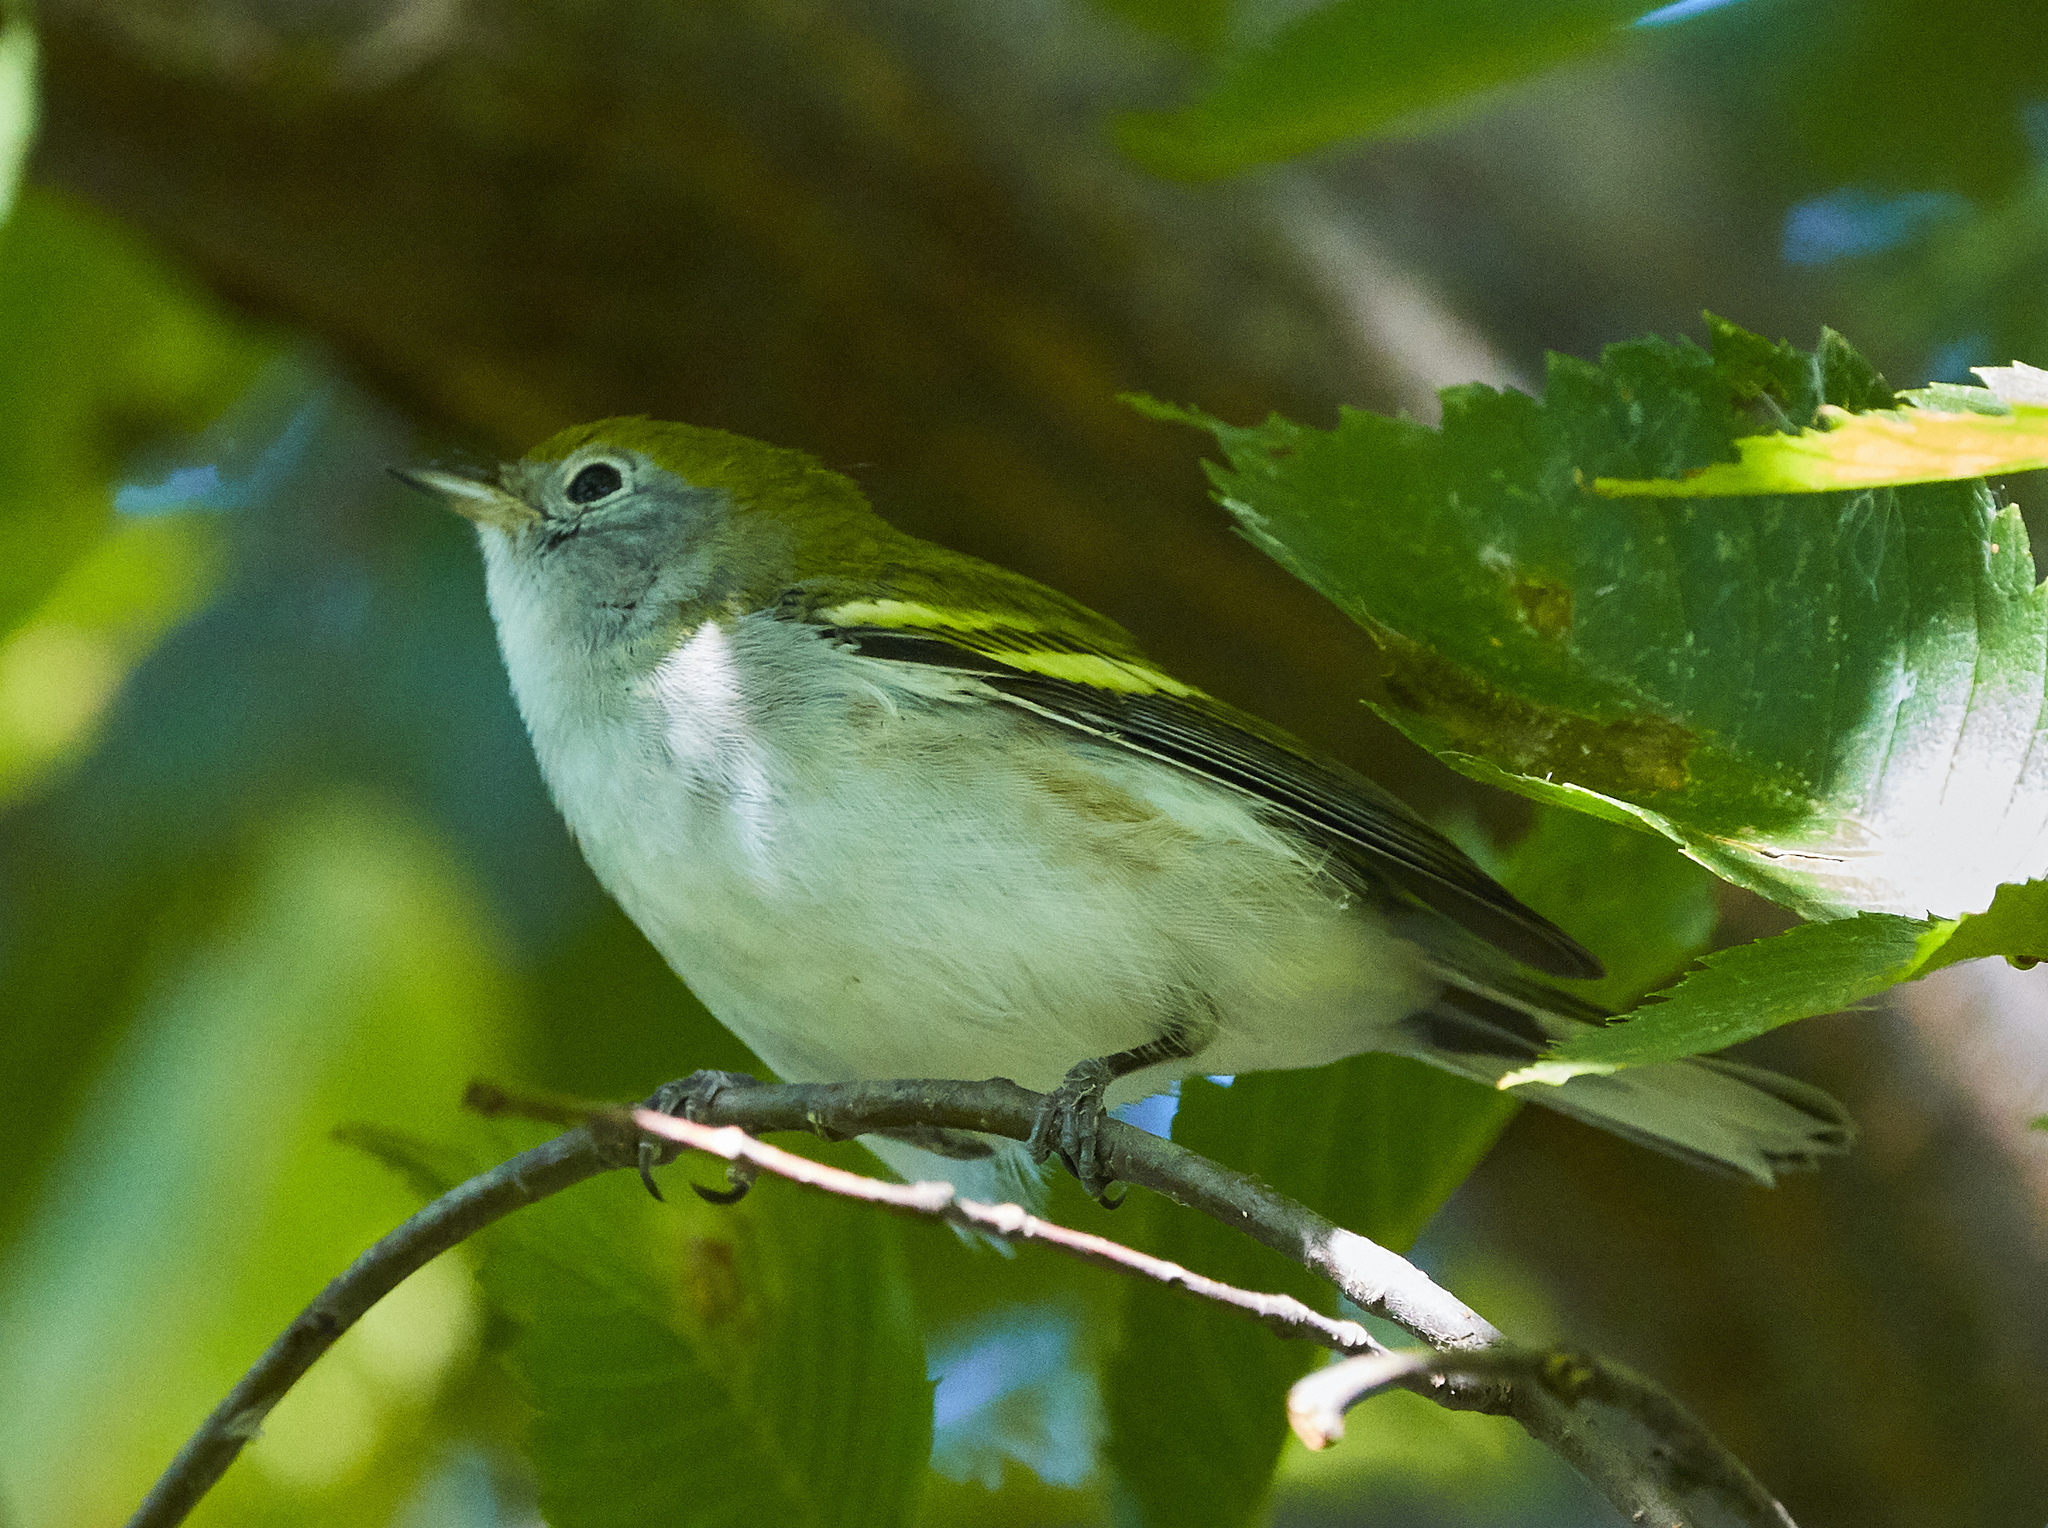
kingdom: Animalia
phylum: Chordata
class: Aves
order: Passeriformes
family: Parulidae
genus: Setophaga
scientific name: Setophaga pensylvanica
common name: Chestnut-sided warbler
